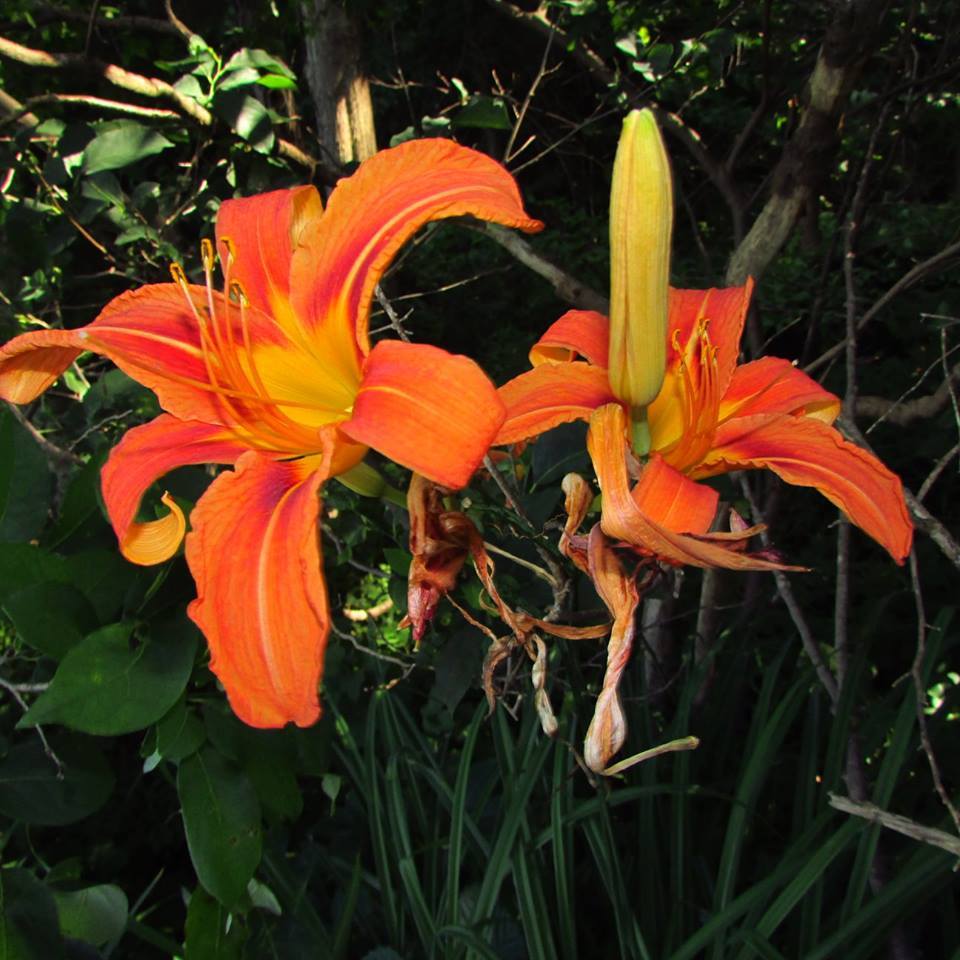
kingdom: Plantae
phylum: Tracheophyta
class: Liliopsida
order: Asparagales
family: Asphodelaceae
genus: Hemerocallis
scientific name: Hemerocallis fulva
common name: Orange day-lily
